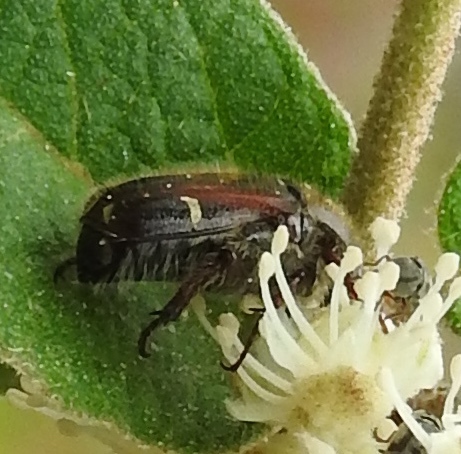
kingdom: Animalia
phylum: Arthropoda
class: Insecta
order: Coleoptera
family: Scarabaeidae
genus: Euphoria
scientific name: Euphoria pulchella
